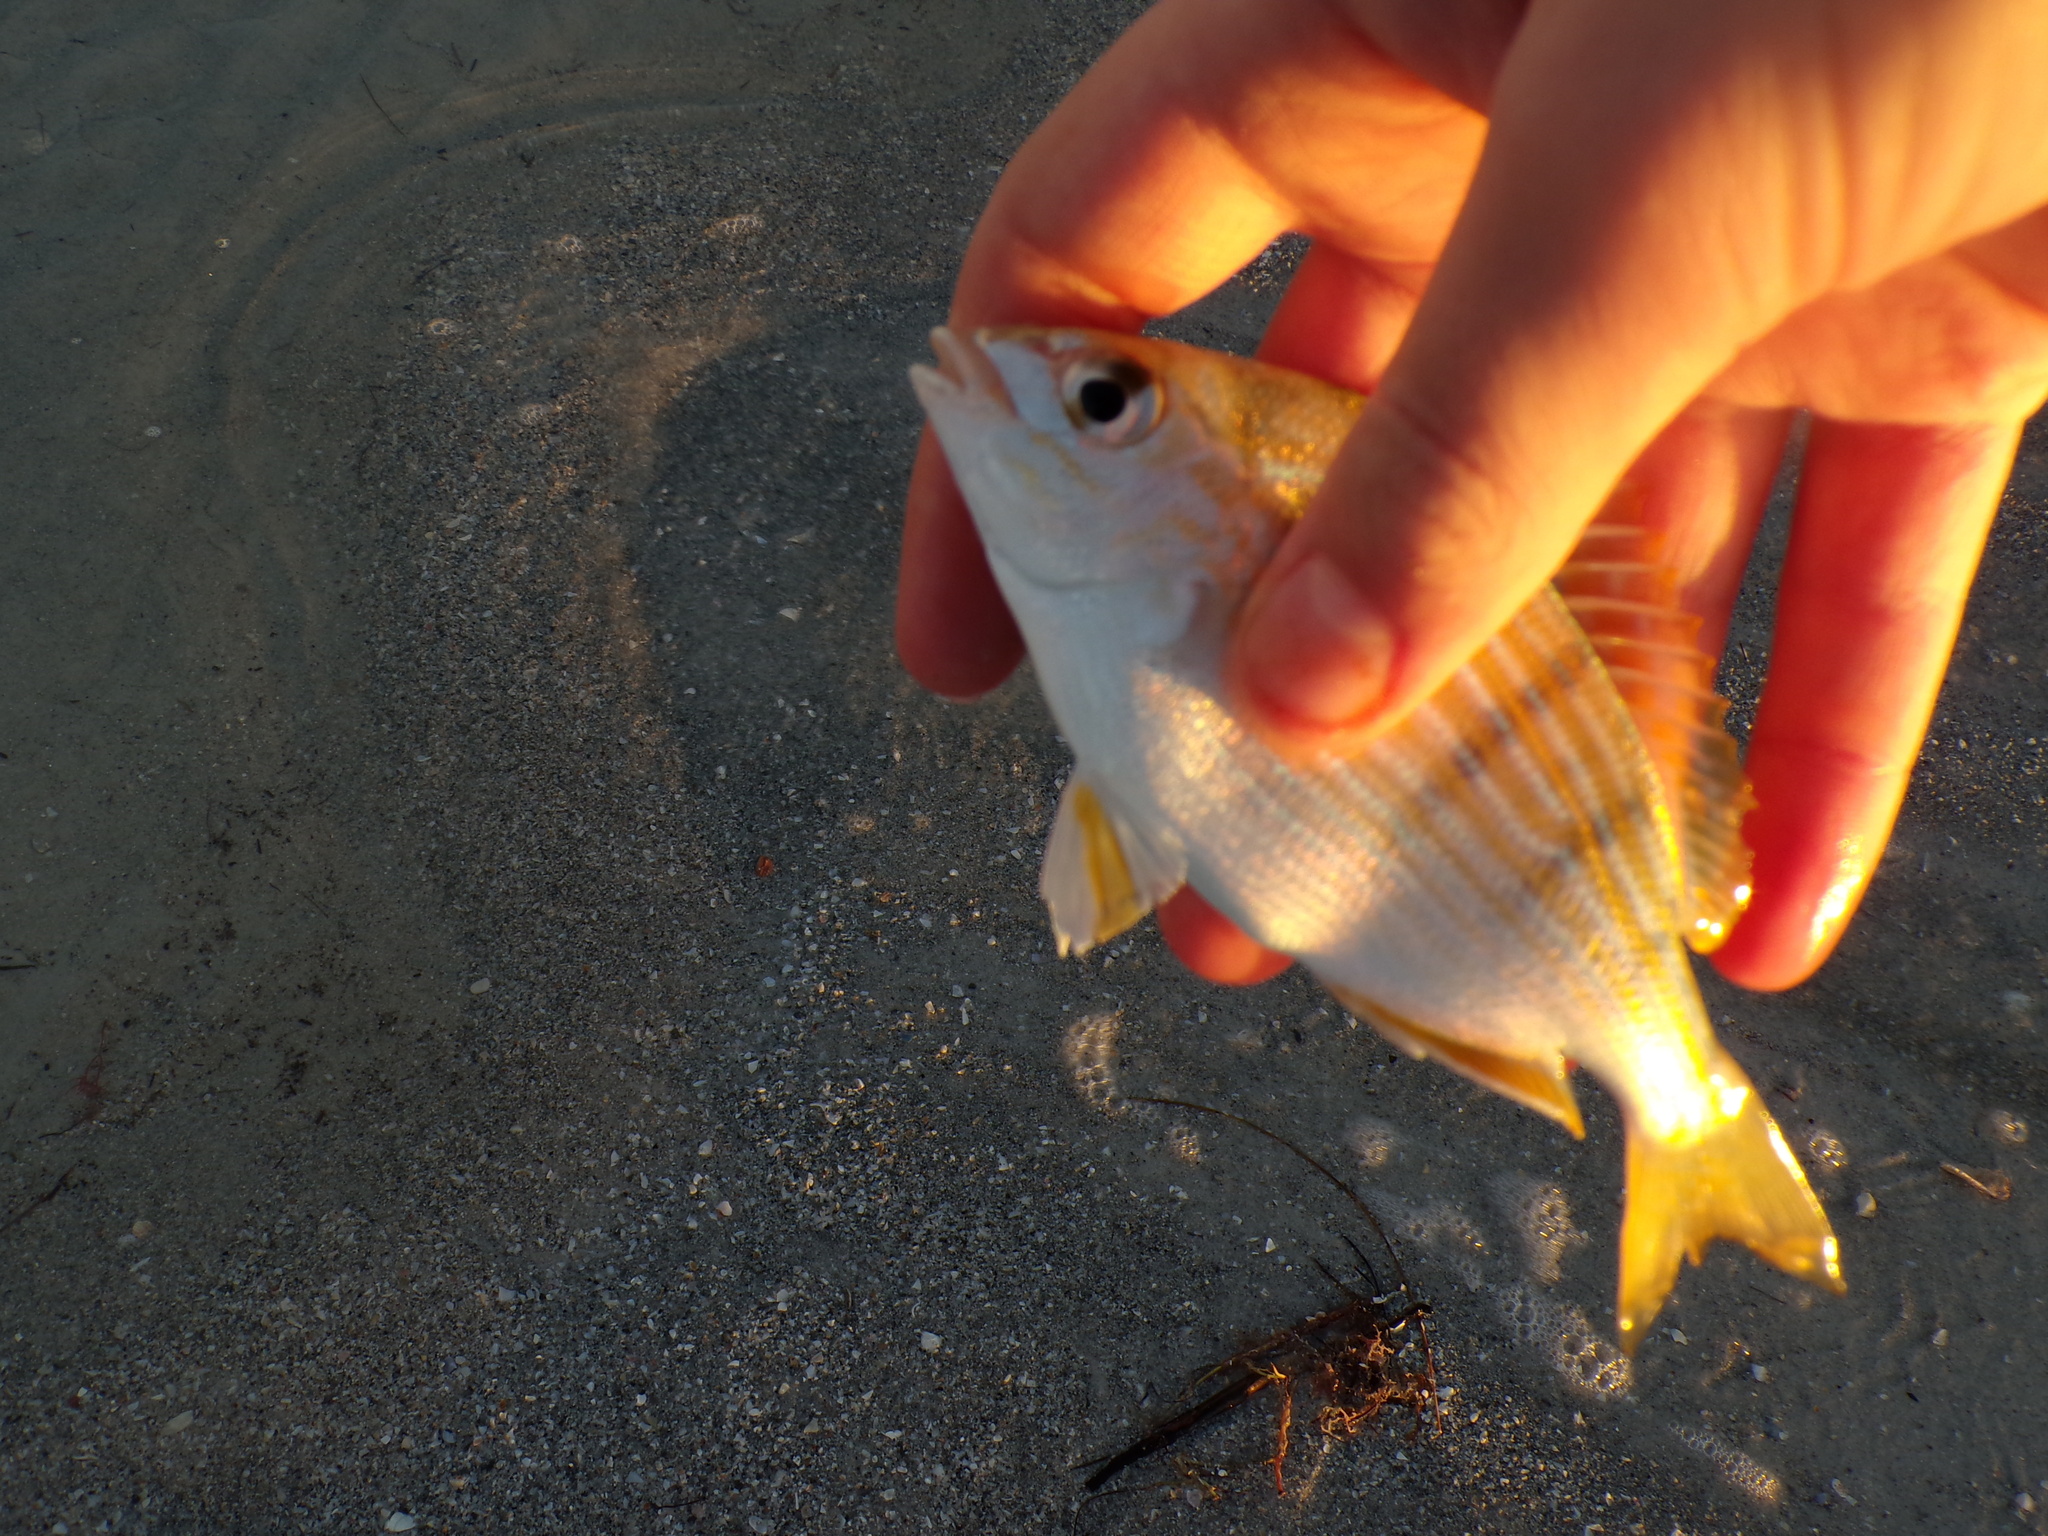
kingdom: Animalia
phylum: Chordata
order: Perciformes
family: Sparidae
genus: Lagodon
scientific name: Lagodon rhomboides
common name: Pinfish
